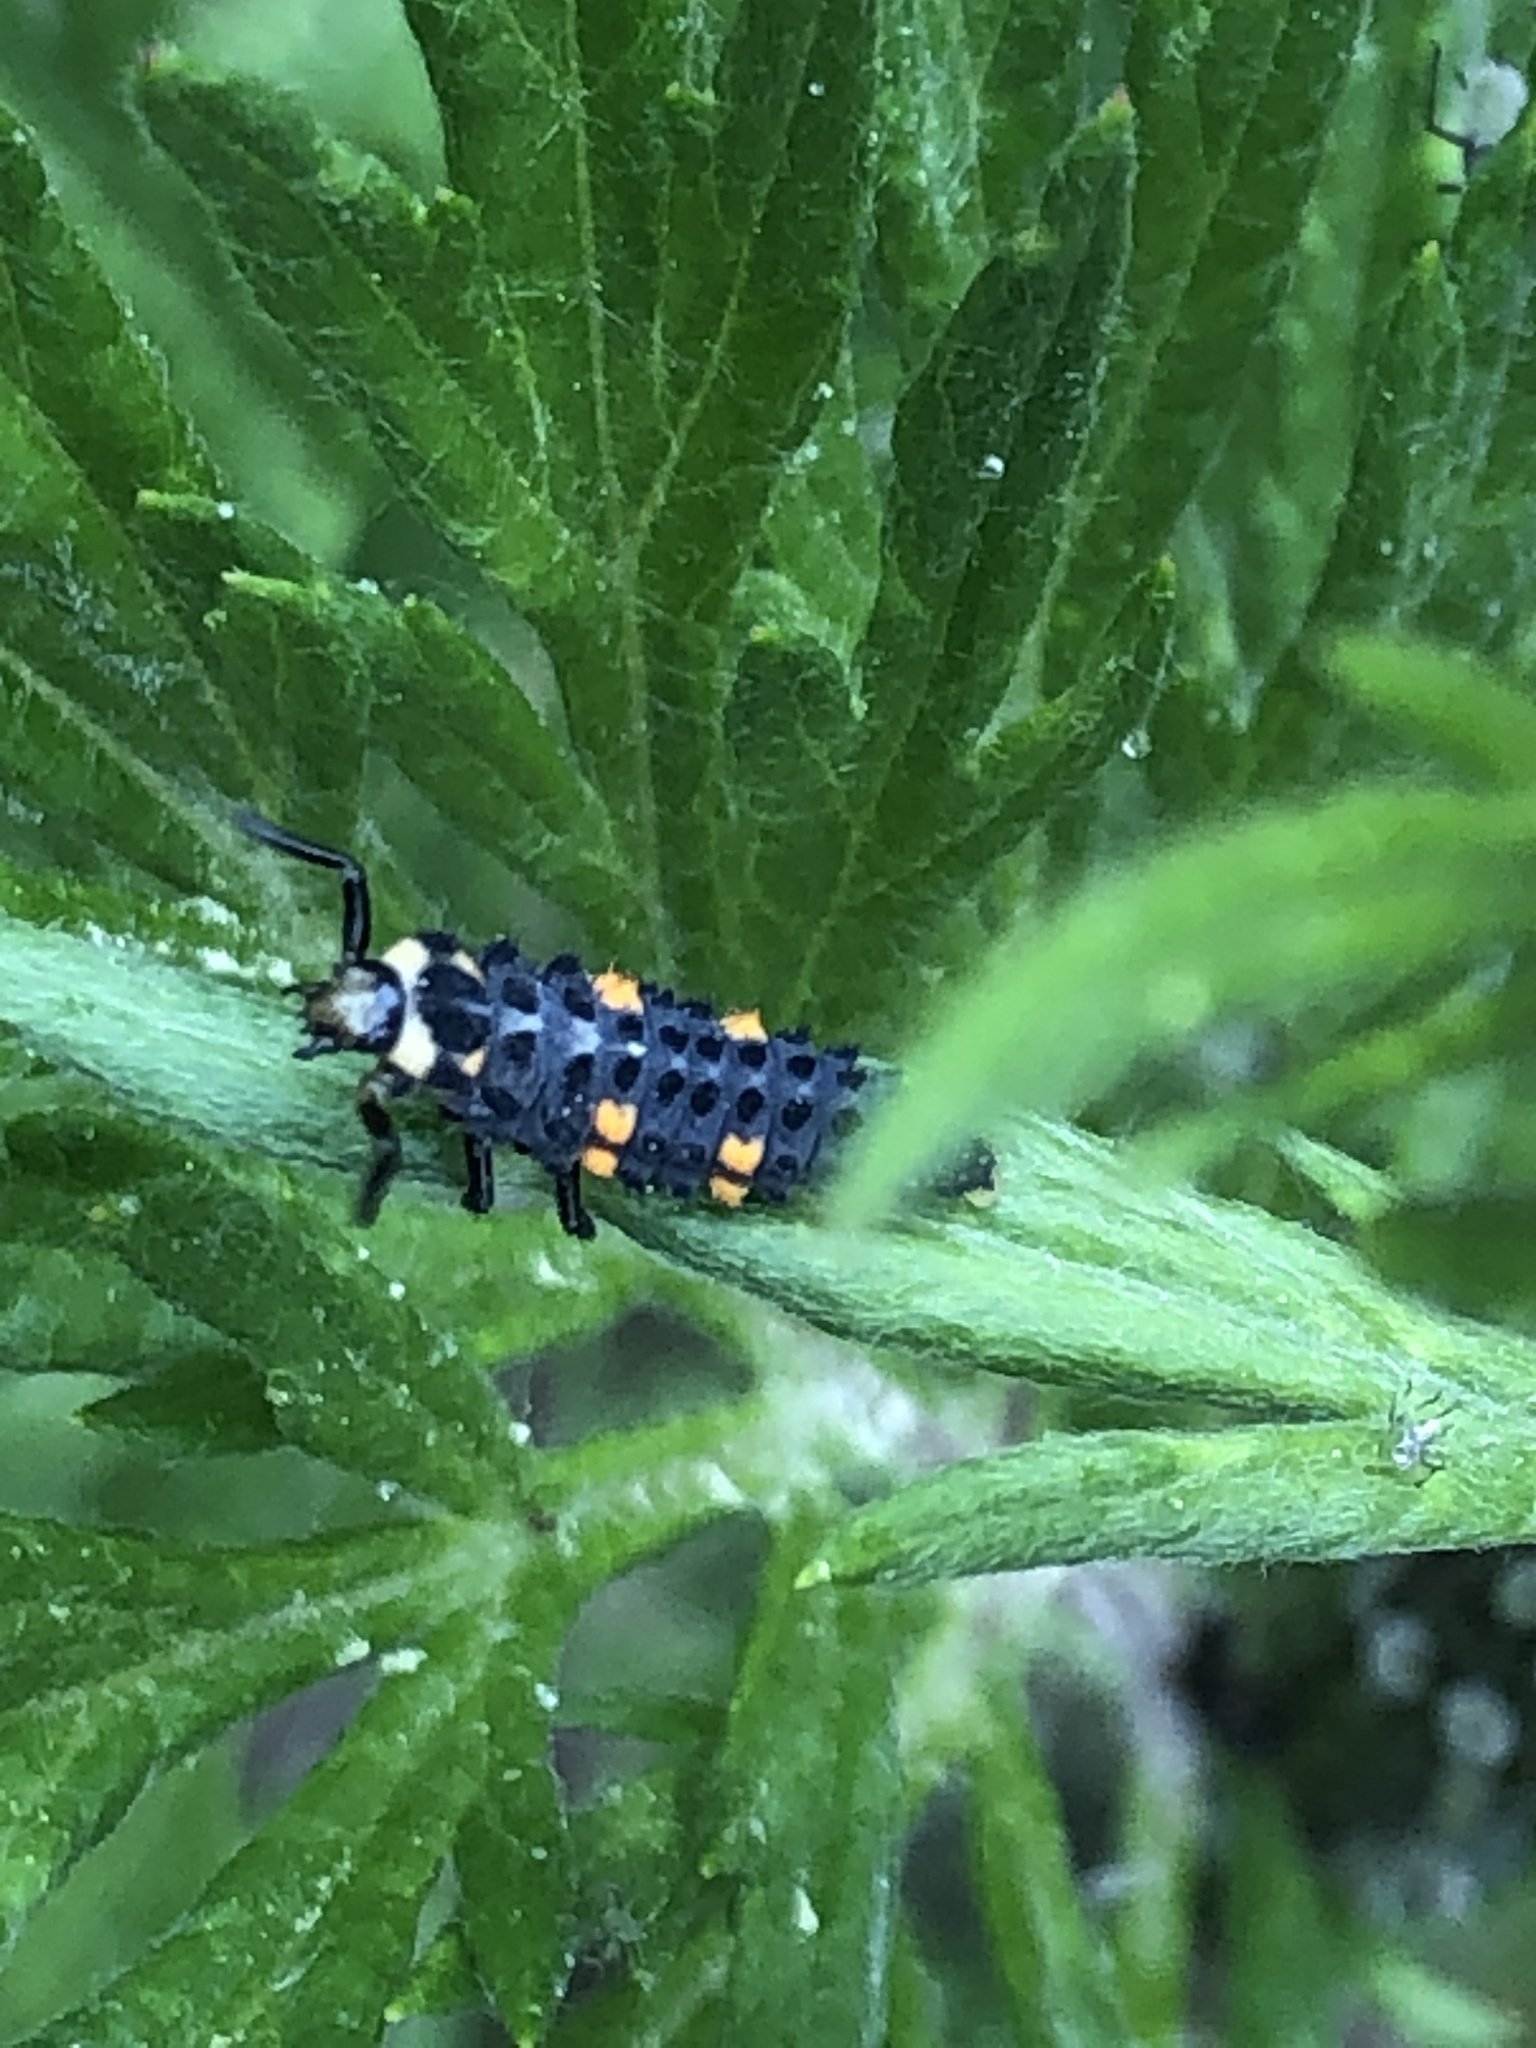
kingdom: Animalia
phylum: Arthropoda
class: Insecta
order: Coleoptera
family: Coccinellidae
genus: Coccinella
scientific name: Coccinella septempunctata
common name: Sevenspotted lady beetle
